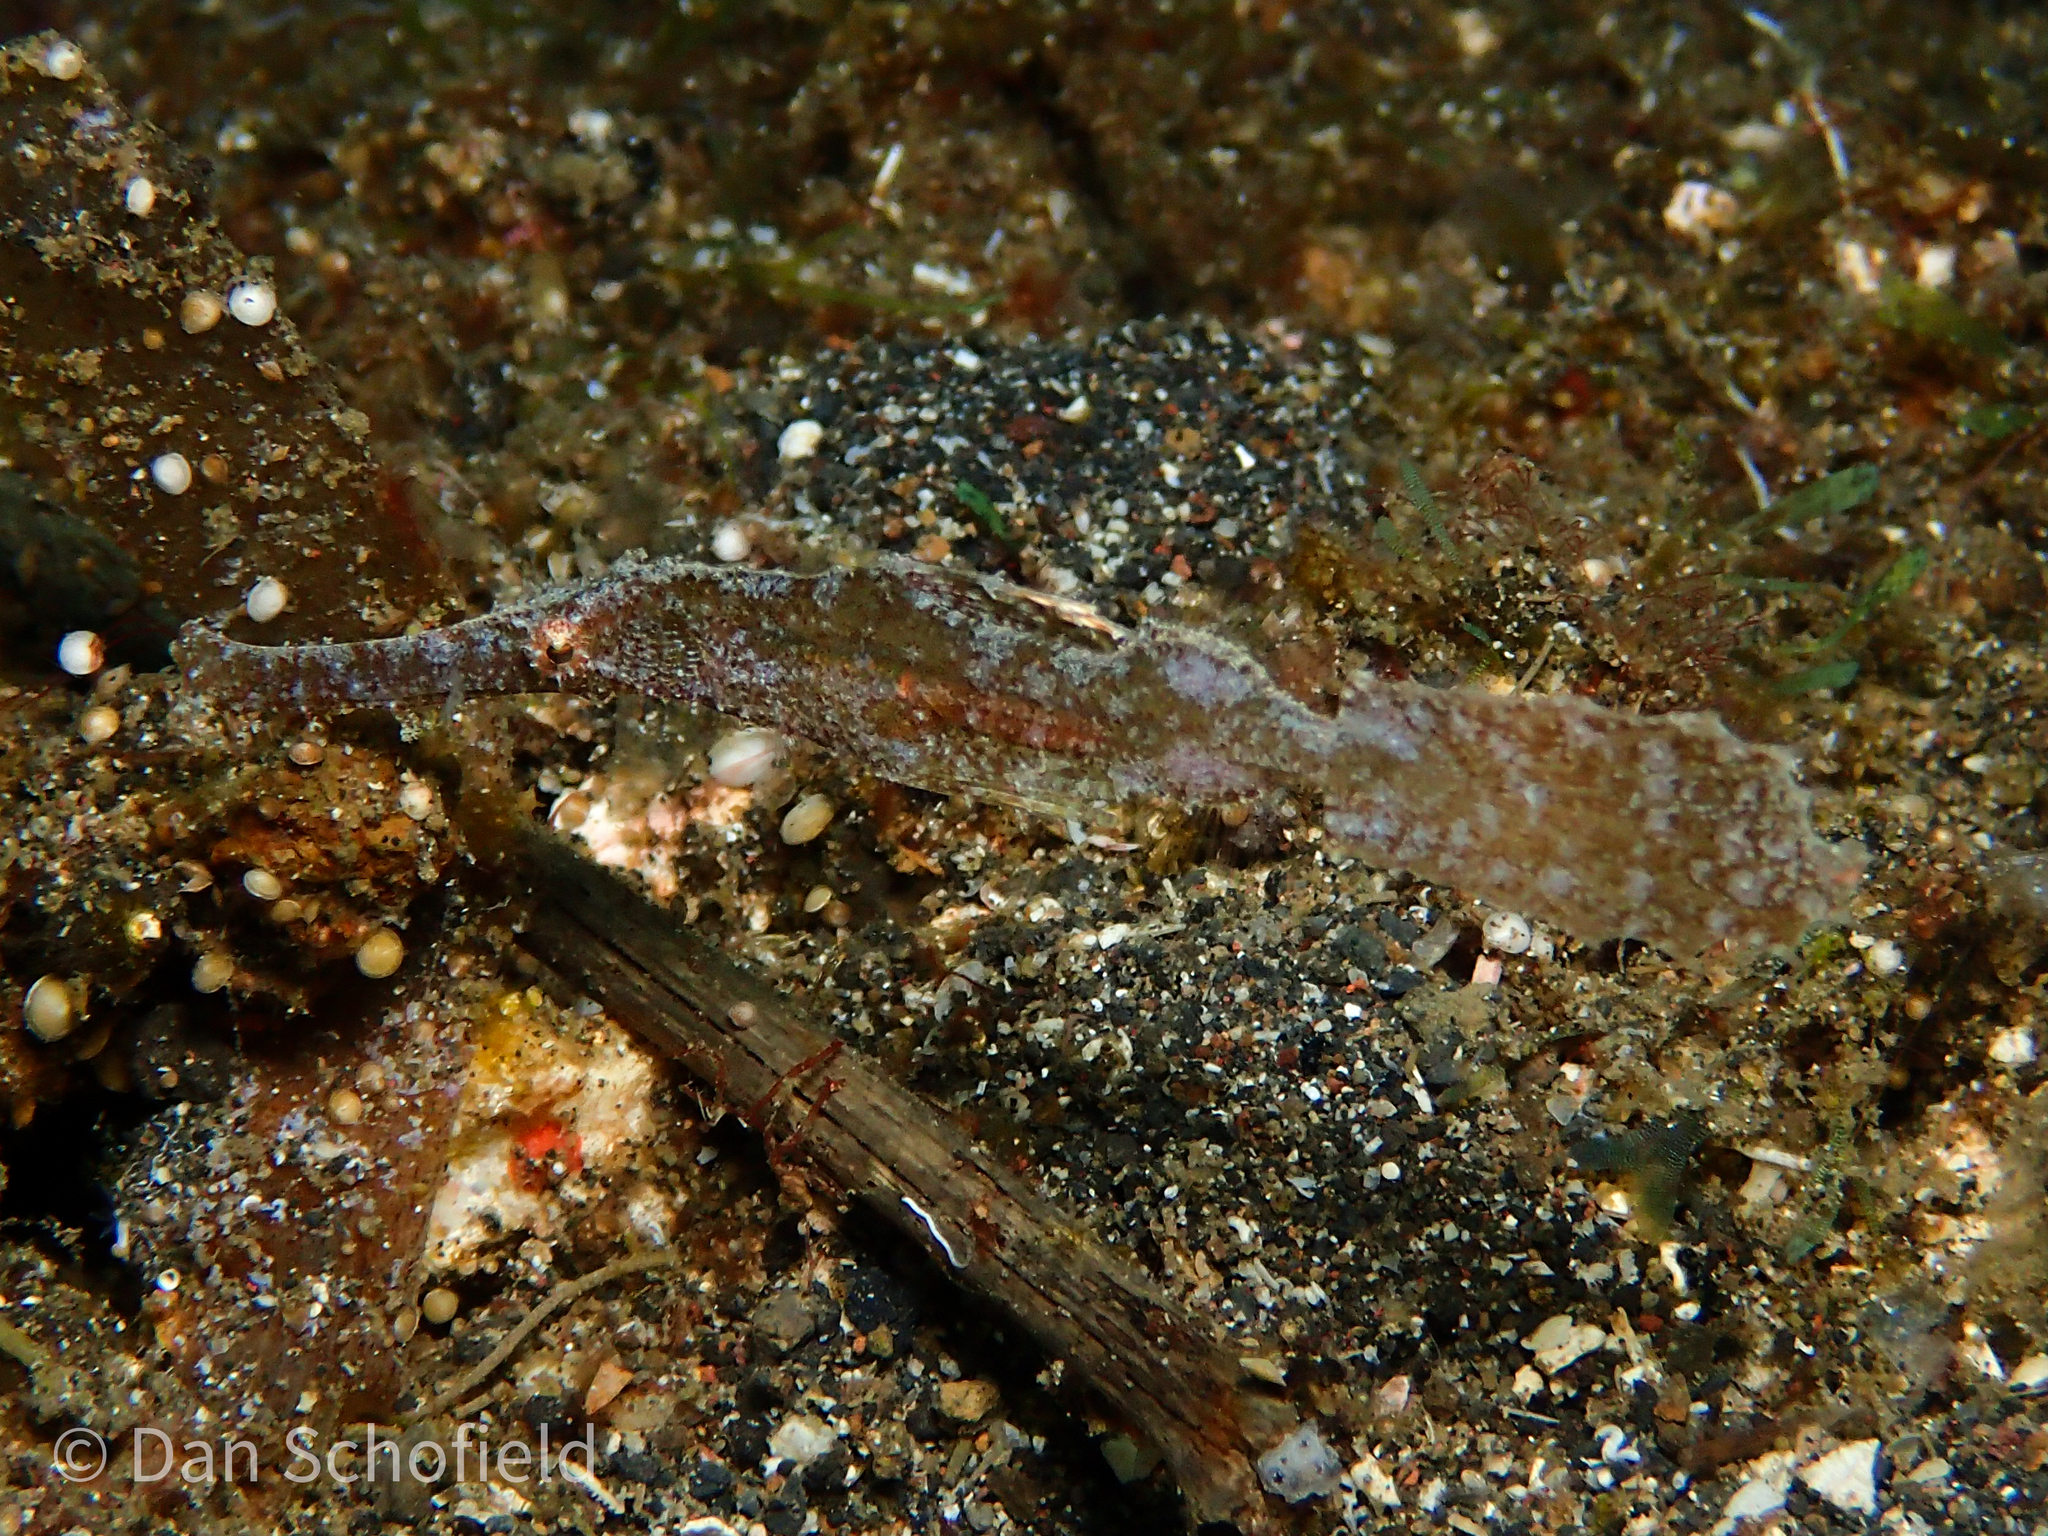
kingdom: Animalia
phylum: Chordata
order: Syngnathiformes
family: Solenostomidae
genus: Solenostomus
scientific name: Solenostomus cyanopterus
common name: Blue-finned ghost pipefish
